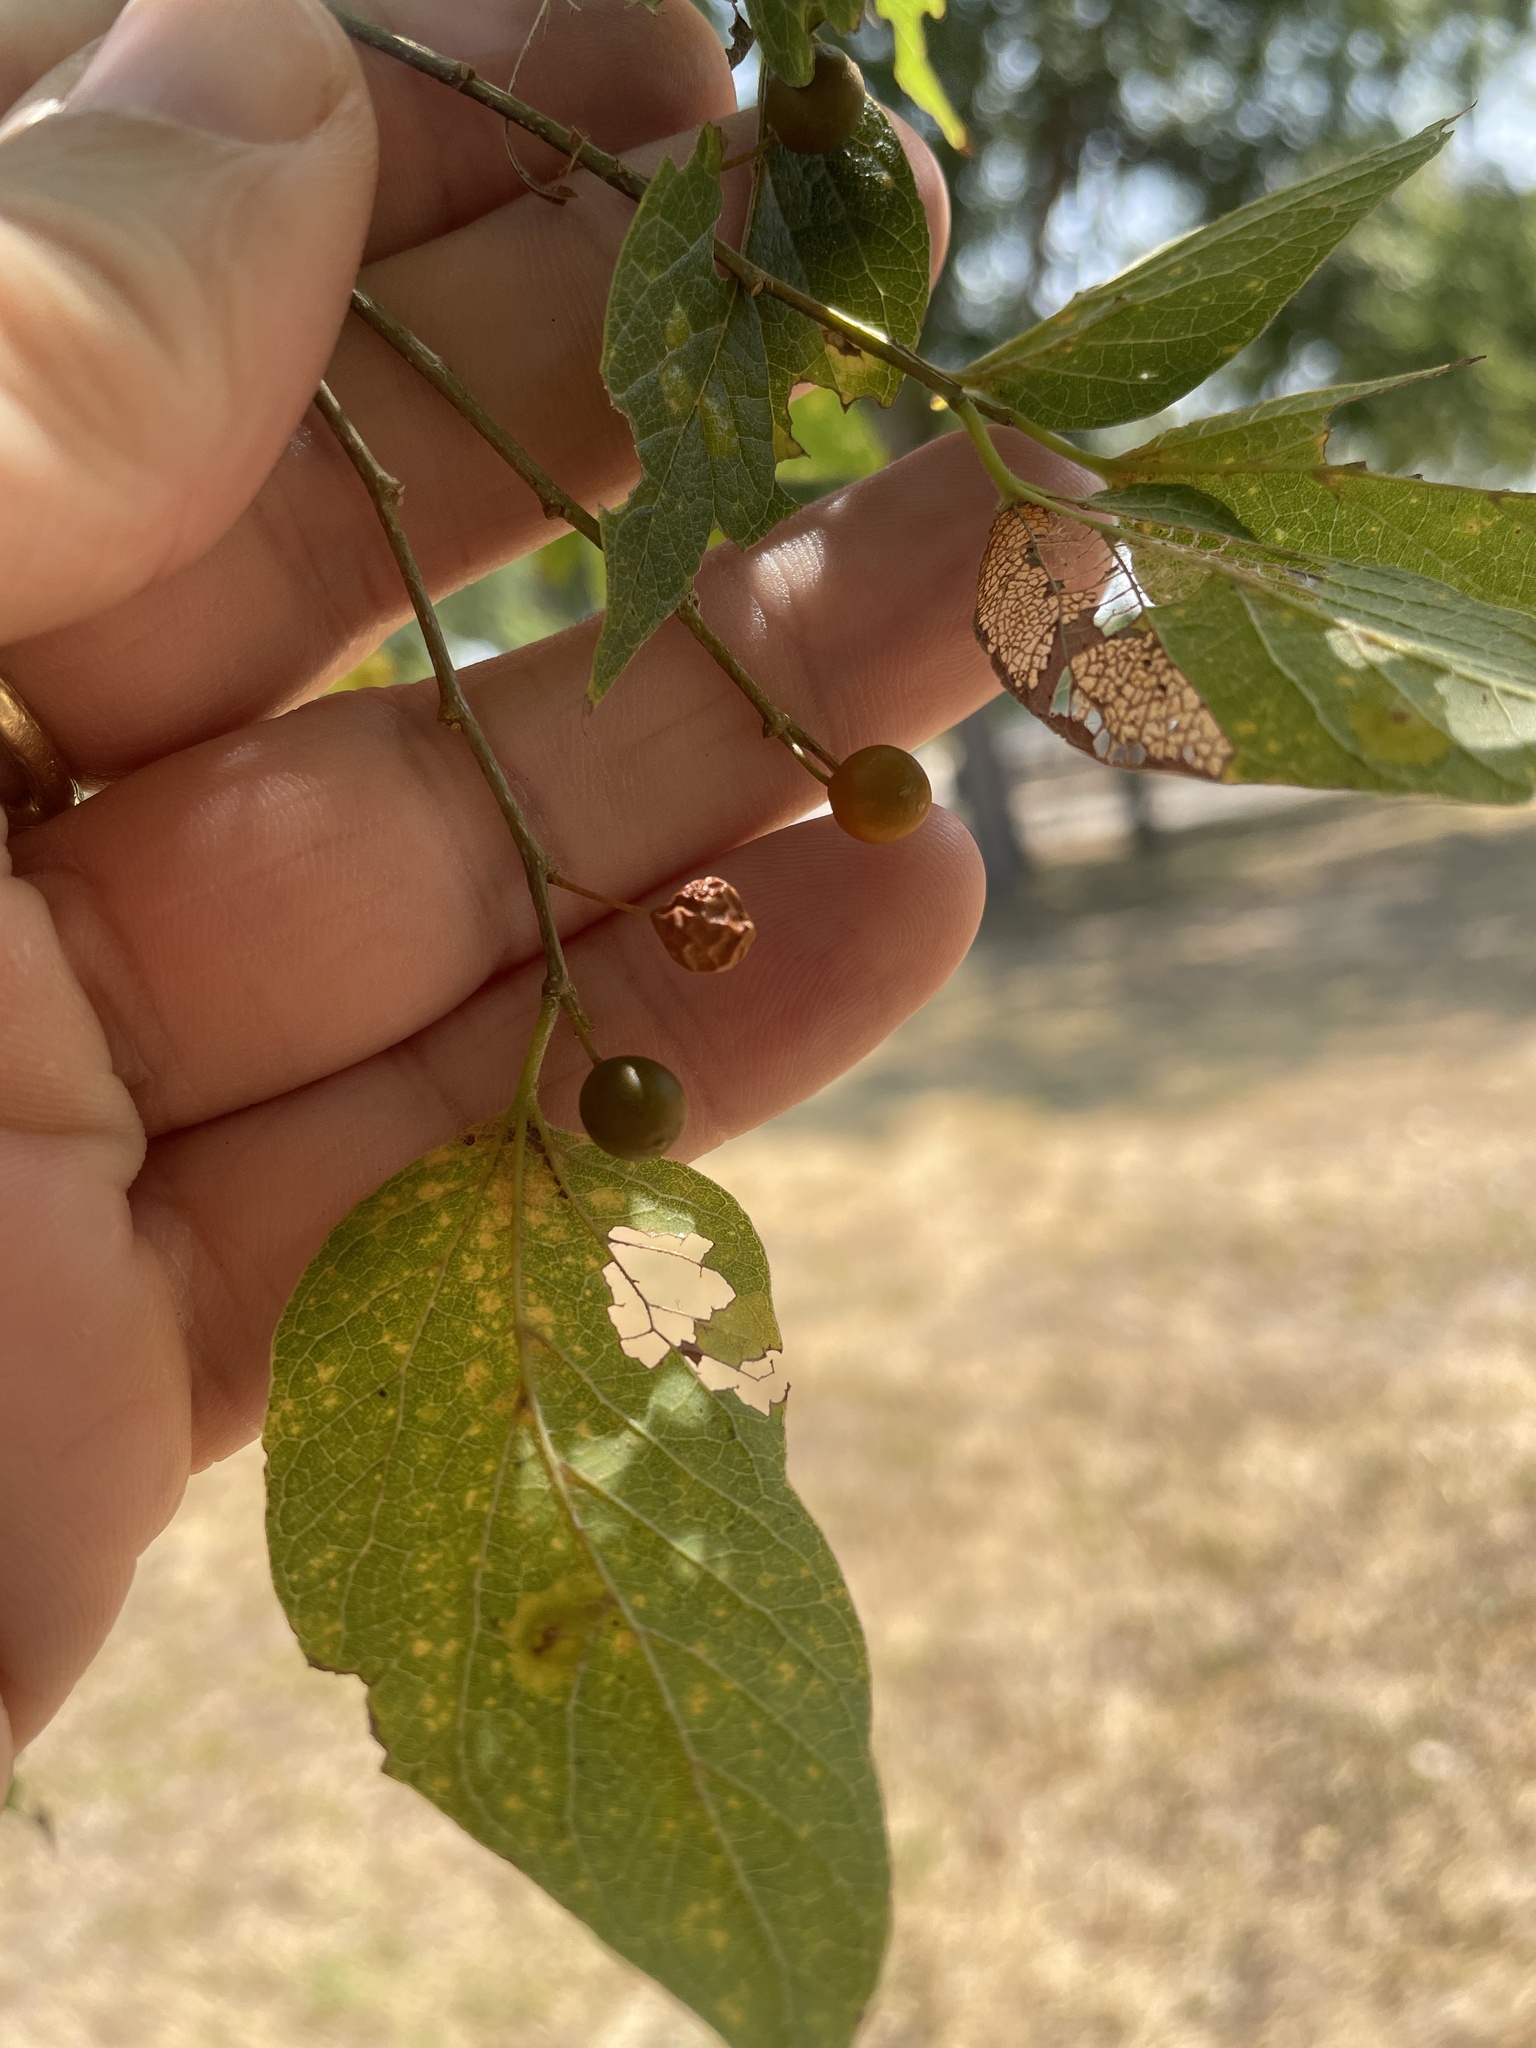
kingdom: Plantae
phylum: Tracheophyta
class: Magnoliopsida
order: Rosales
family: Cannabaceae
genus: Celtis
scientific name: Celtis laevigata
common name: Sugarberry
